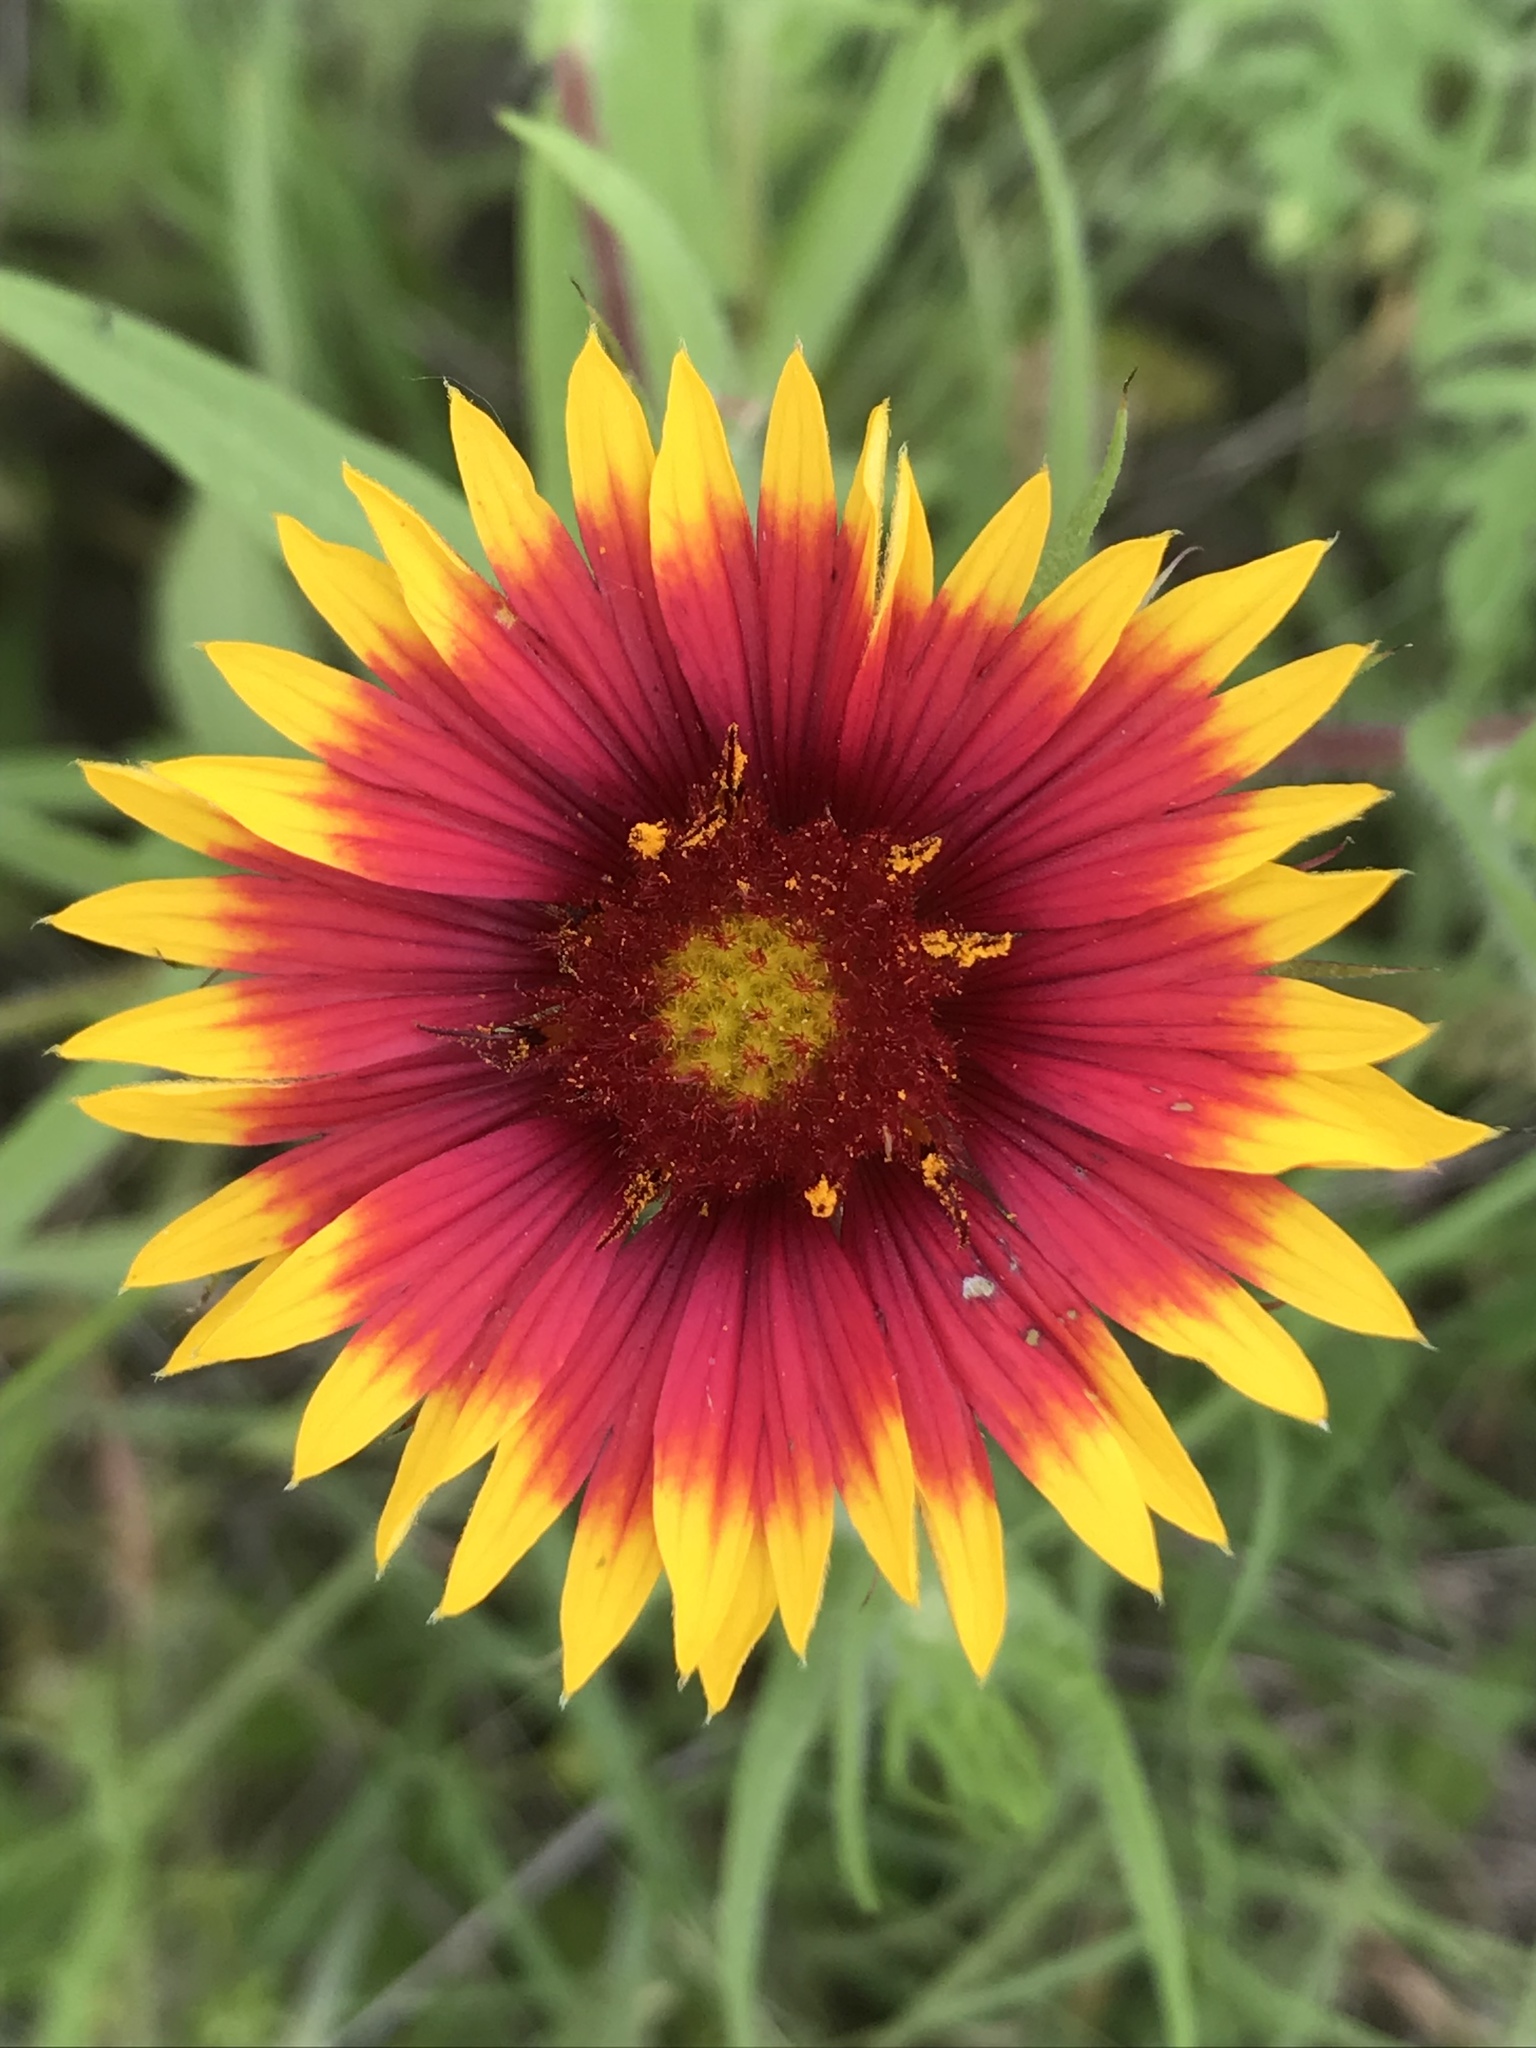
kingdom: Plantae
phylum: Tracheophyta
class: Magnoliopsida
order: Asterales
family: Asteraceae
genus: Gaillardia
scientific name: Gaillardia pulchella
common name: Firewheel
